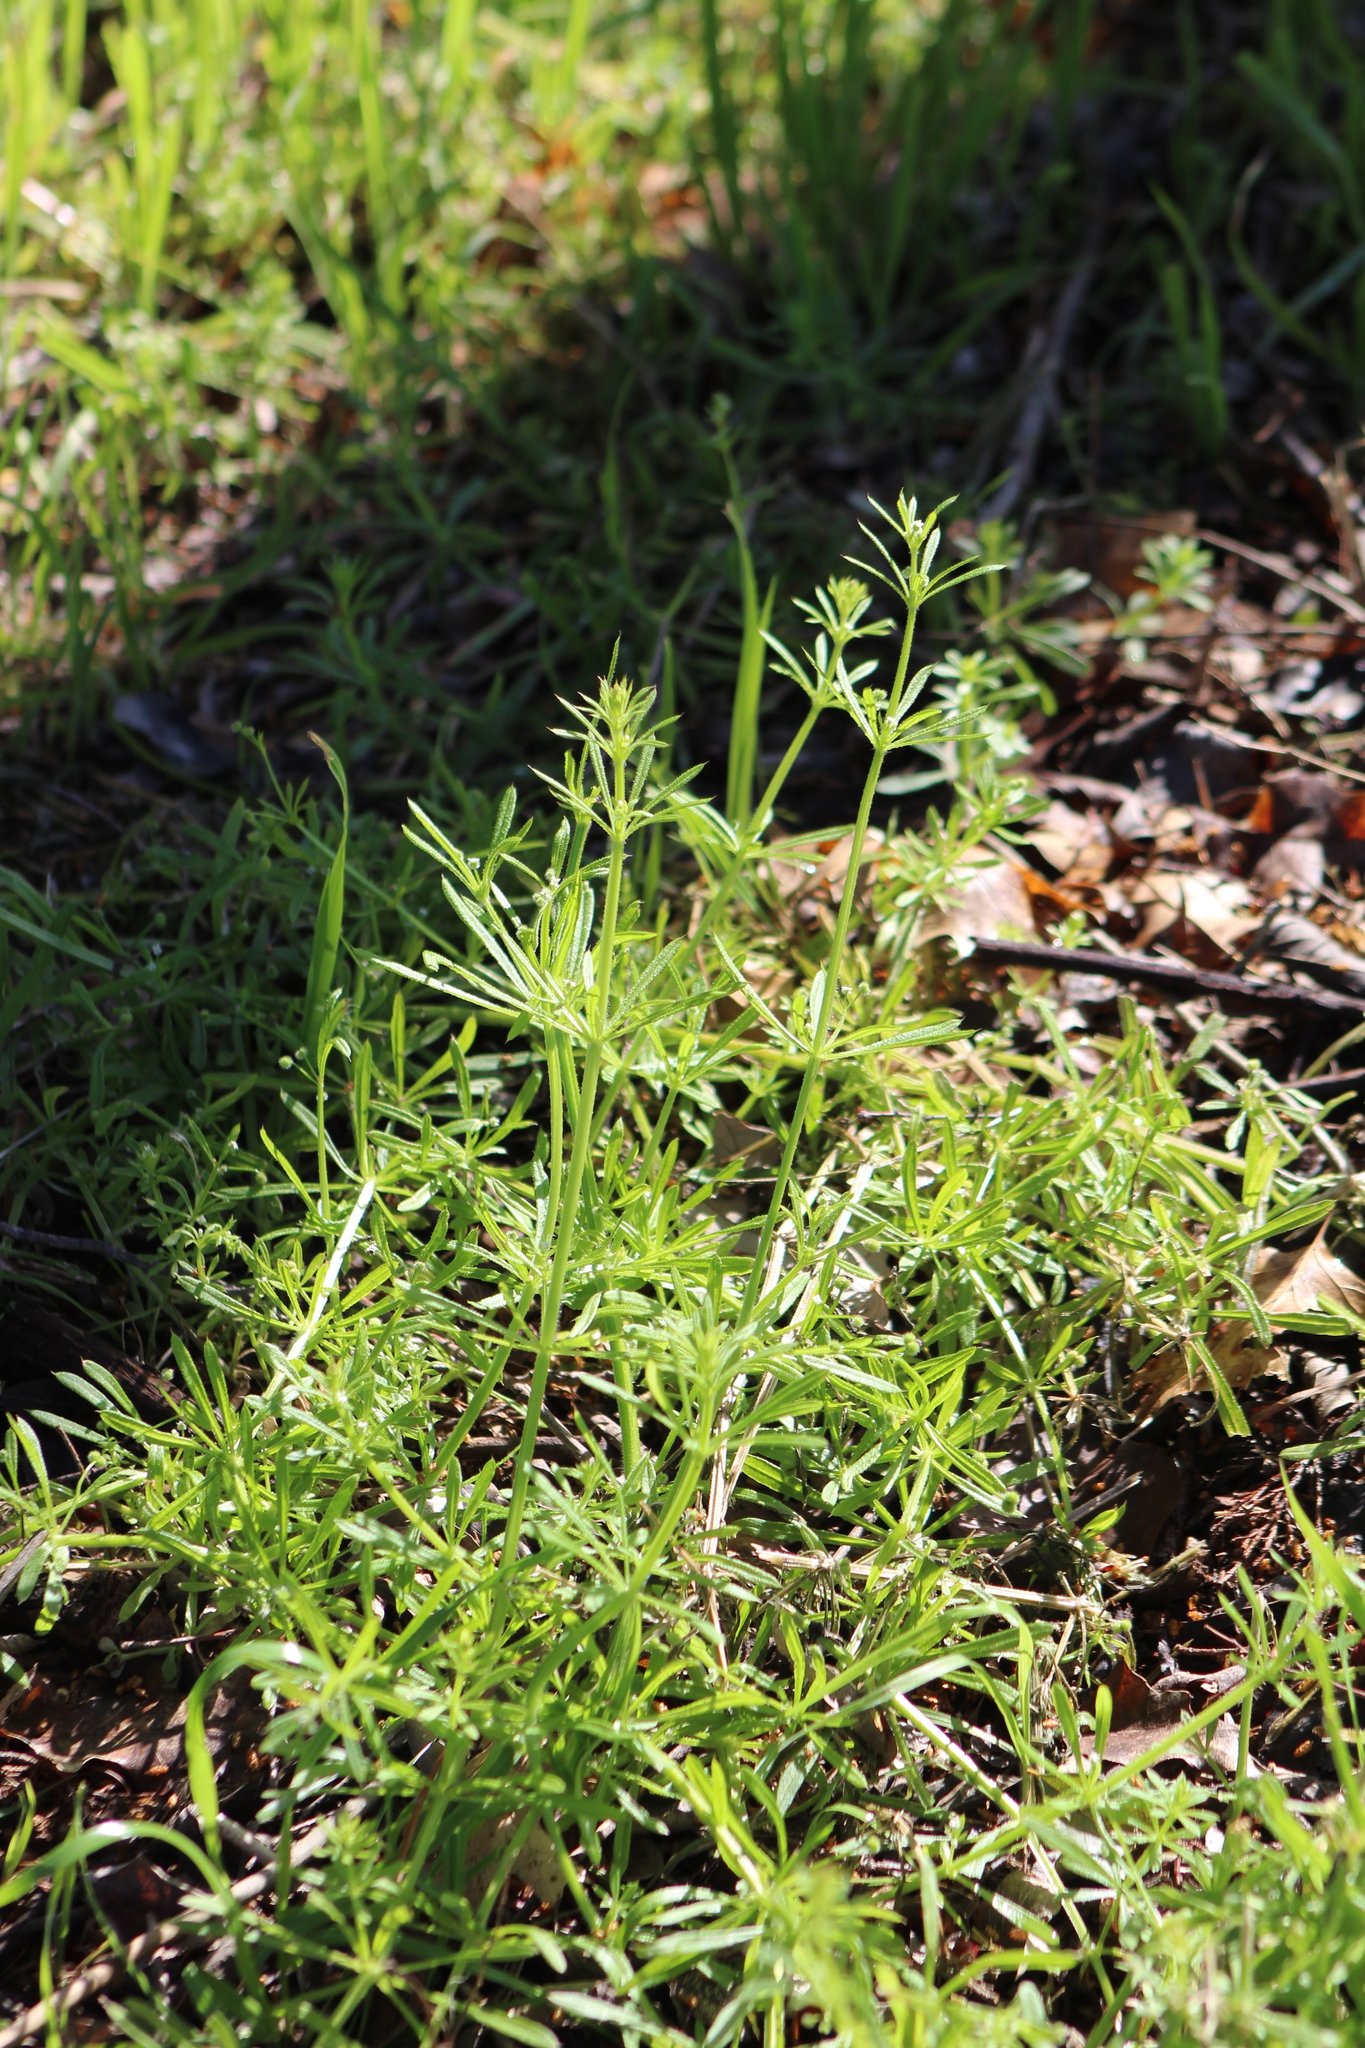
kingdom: Plantae
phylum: Tracheophyta
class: Magnoliopsida
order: Gentianales
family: Rubiaceae
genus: Galium
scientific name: Galium aparine
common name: Cleavers
